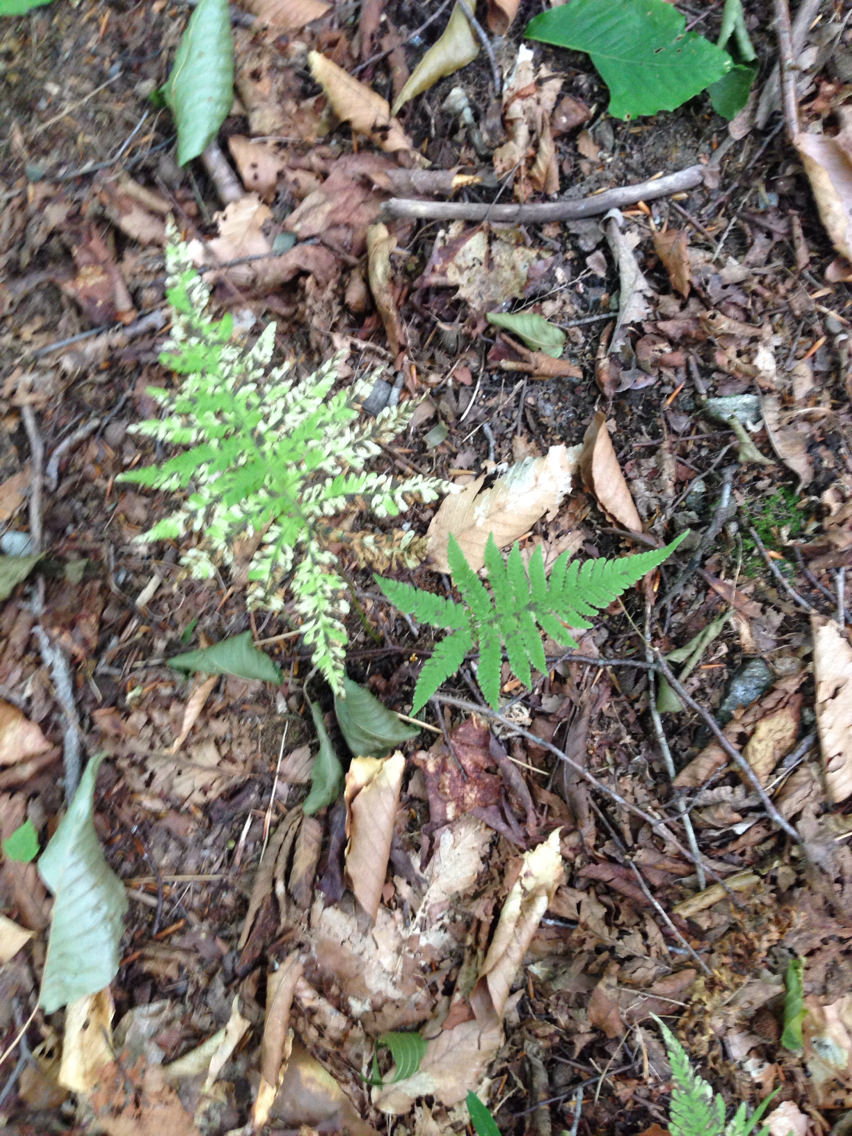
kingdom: Plantae
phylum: Tracheophyta
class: Polypodiopsida
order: Polypodiales
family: Thelypteridaceae
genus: Phegopteris
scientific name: Phegopteris connectilis
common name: Beech fern
